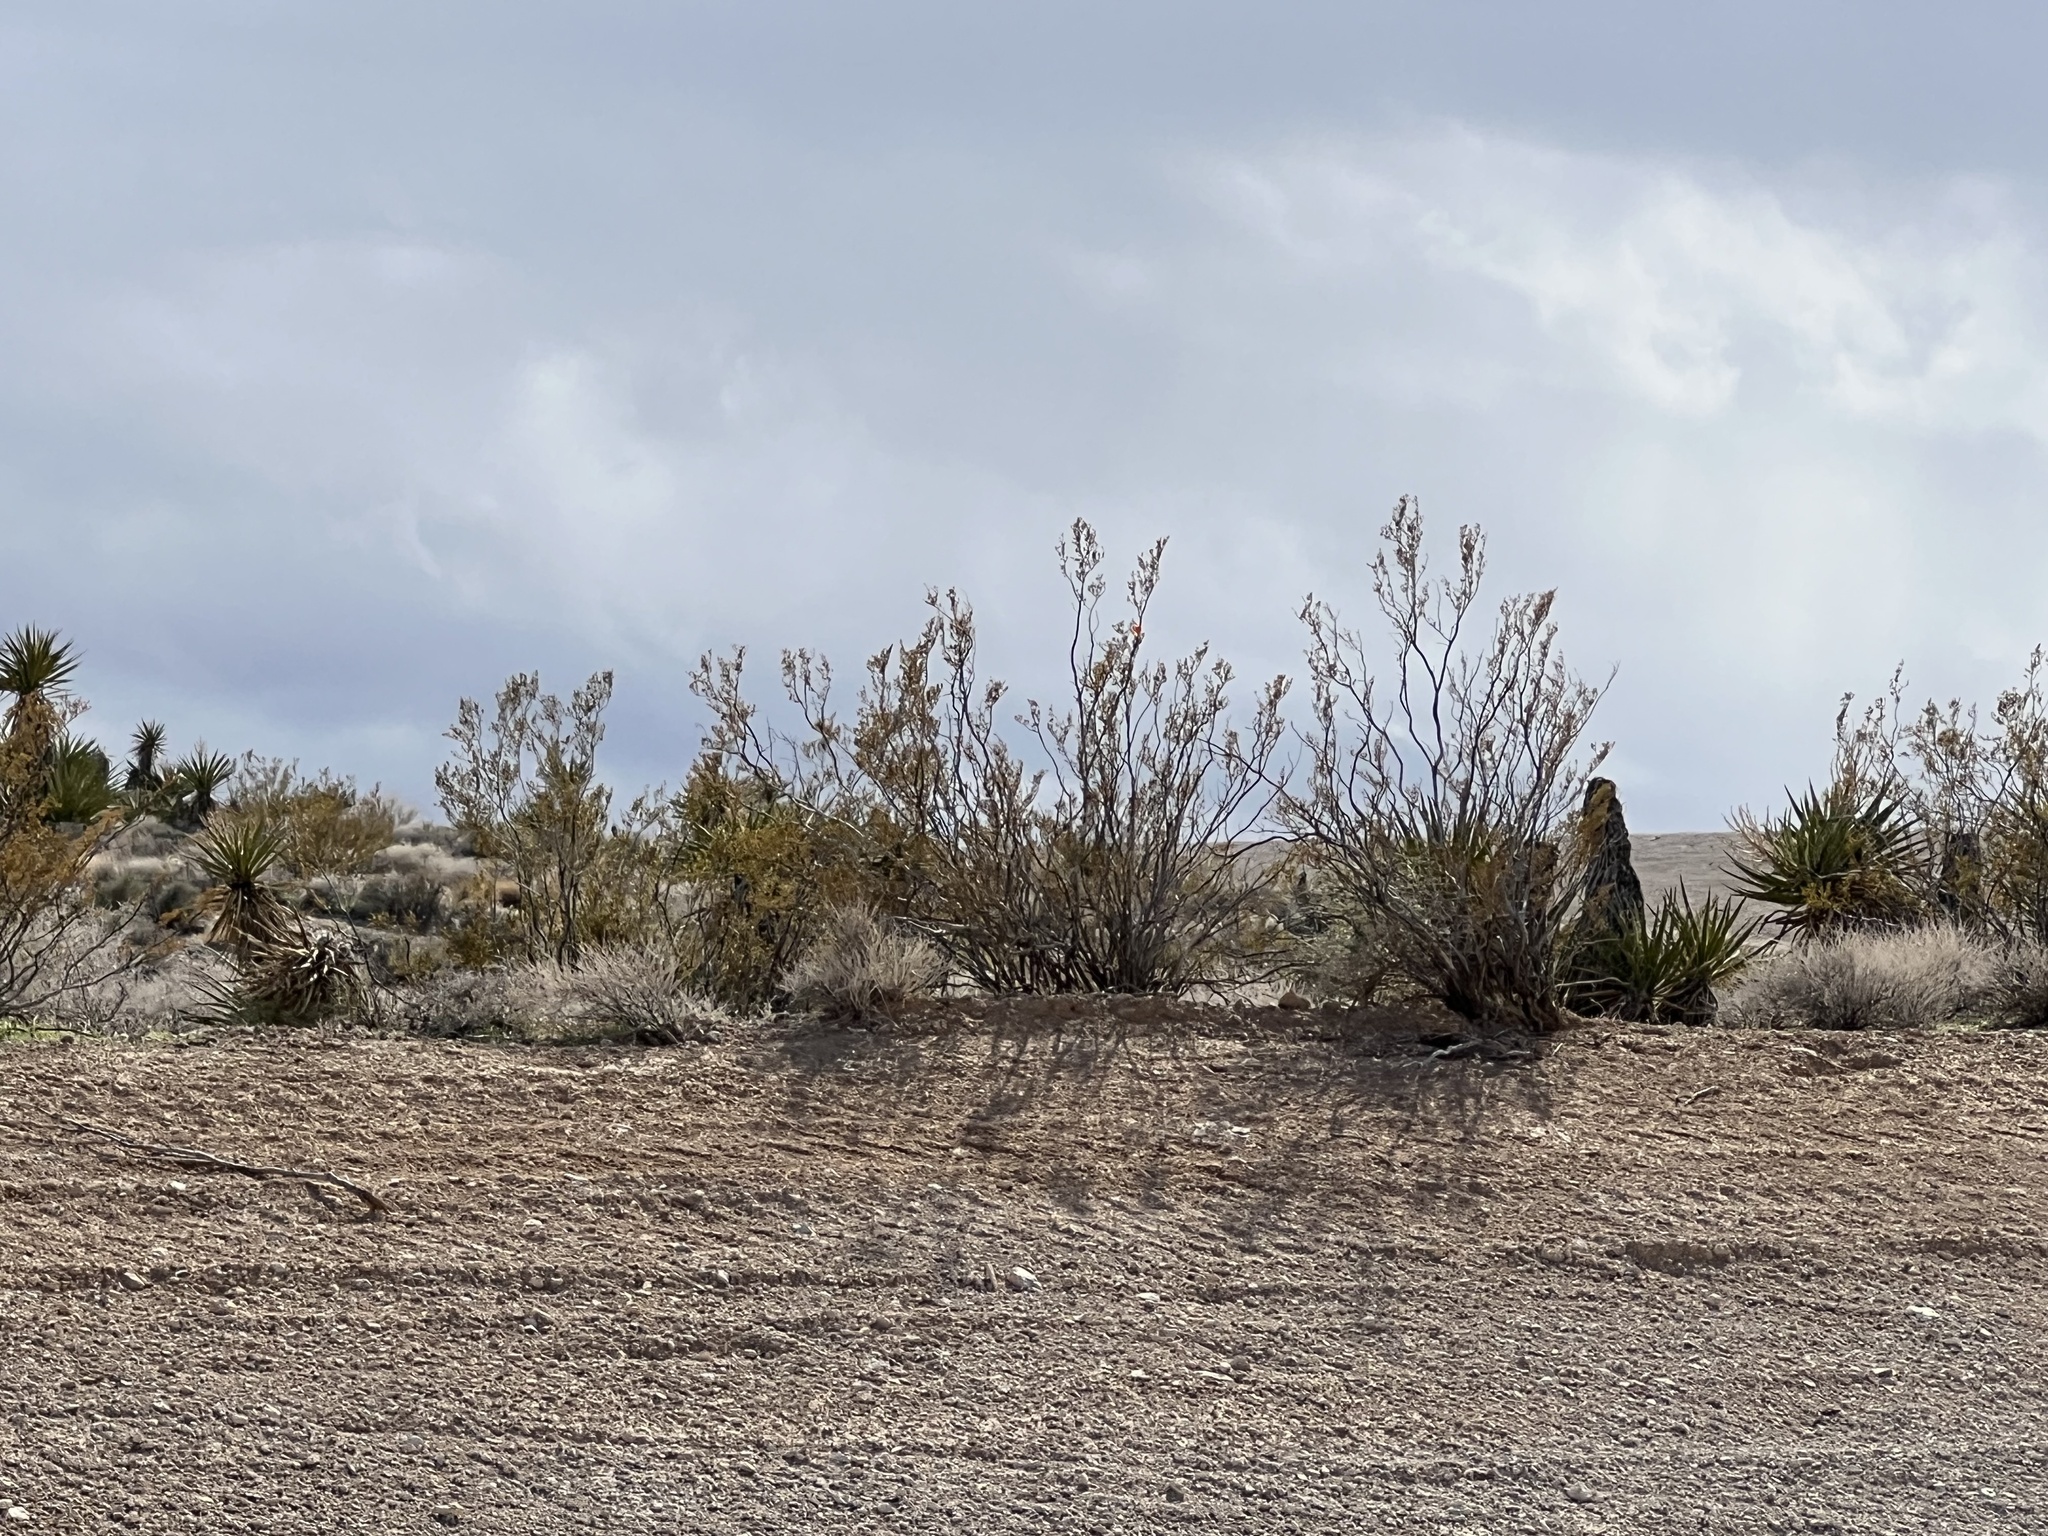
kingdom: Plantae
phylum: Tracheophyta
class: Magnoliopsida
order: Zygophyllales
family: Zygophyllaceae
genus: Larrea
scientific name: Larrea tridentata
